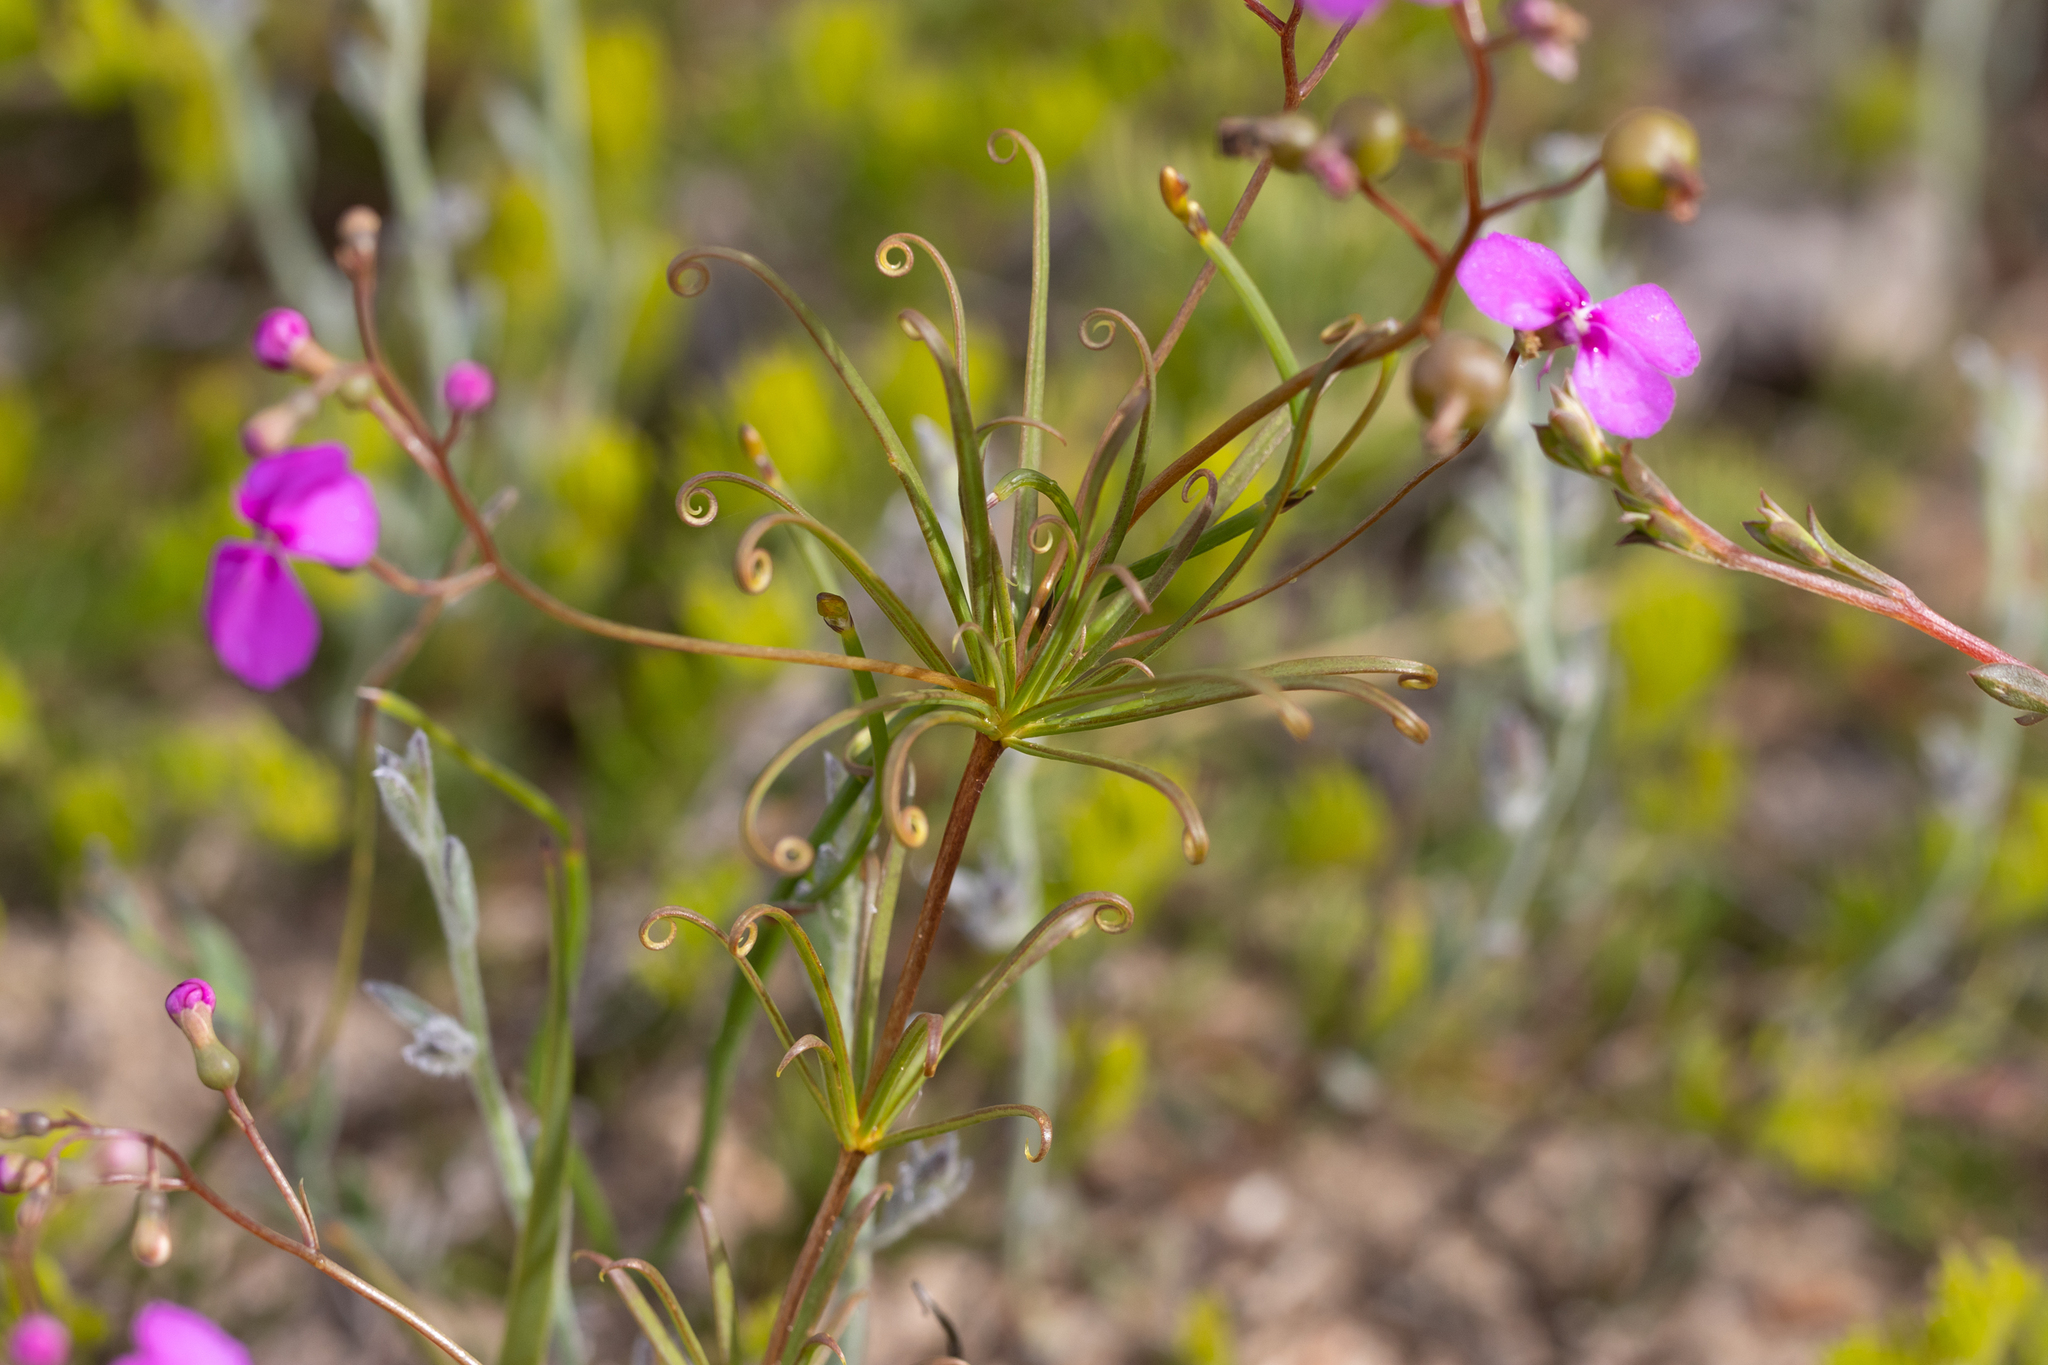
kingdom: Plantae
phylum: Tracheophyta
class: Magnoliopsida
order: Asterales
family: Stylidiaceae
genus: Stylidium
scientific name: Stylidium scandens
